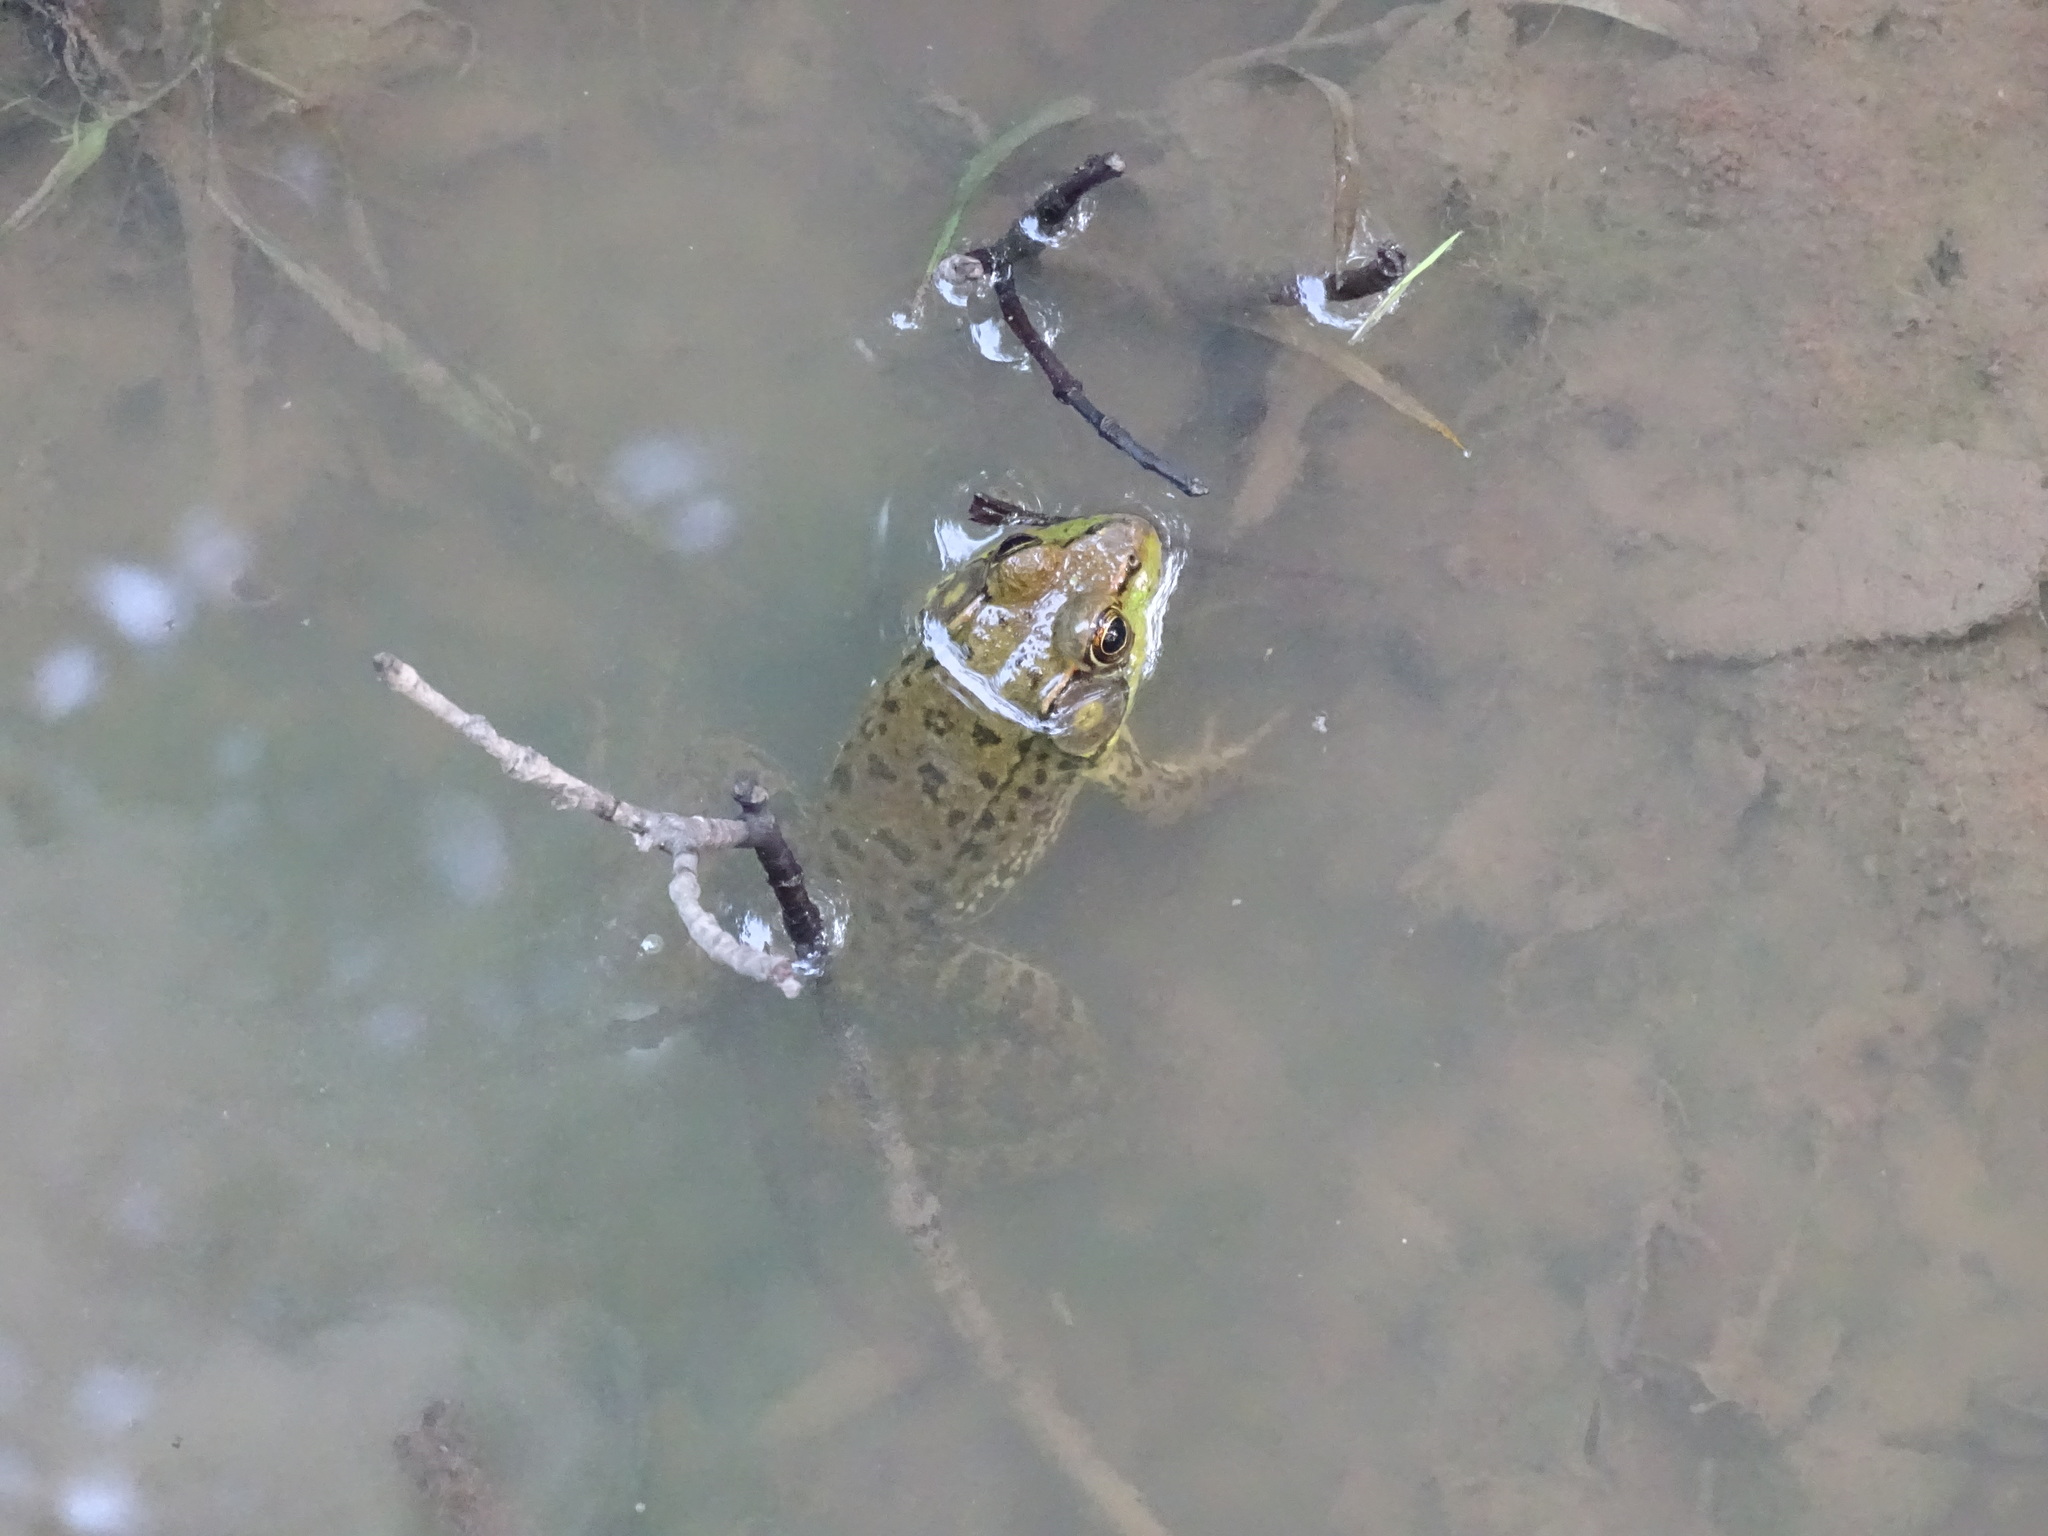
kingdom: Animalia
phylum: Chordata
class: Amphibia
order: Anura
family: Ranidae
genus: Lithobates
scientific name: Lithobates clamitans
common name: Green frog
